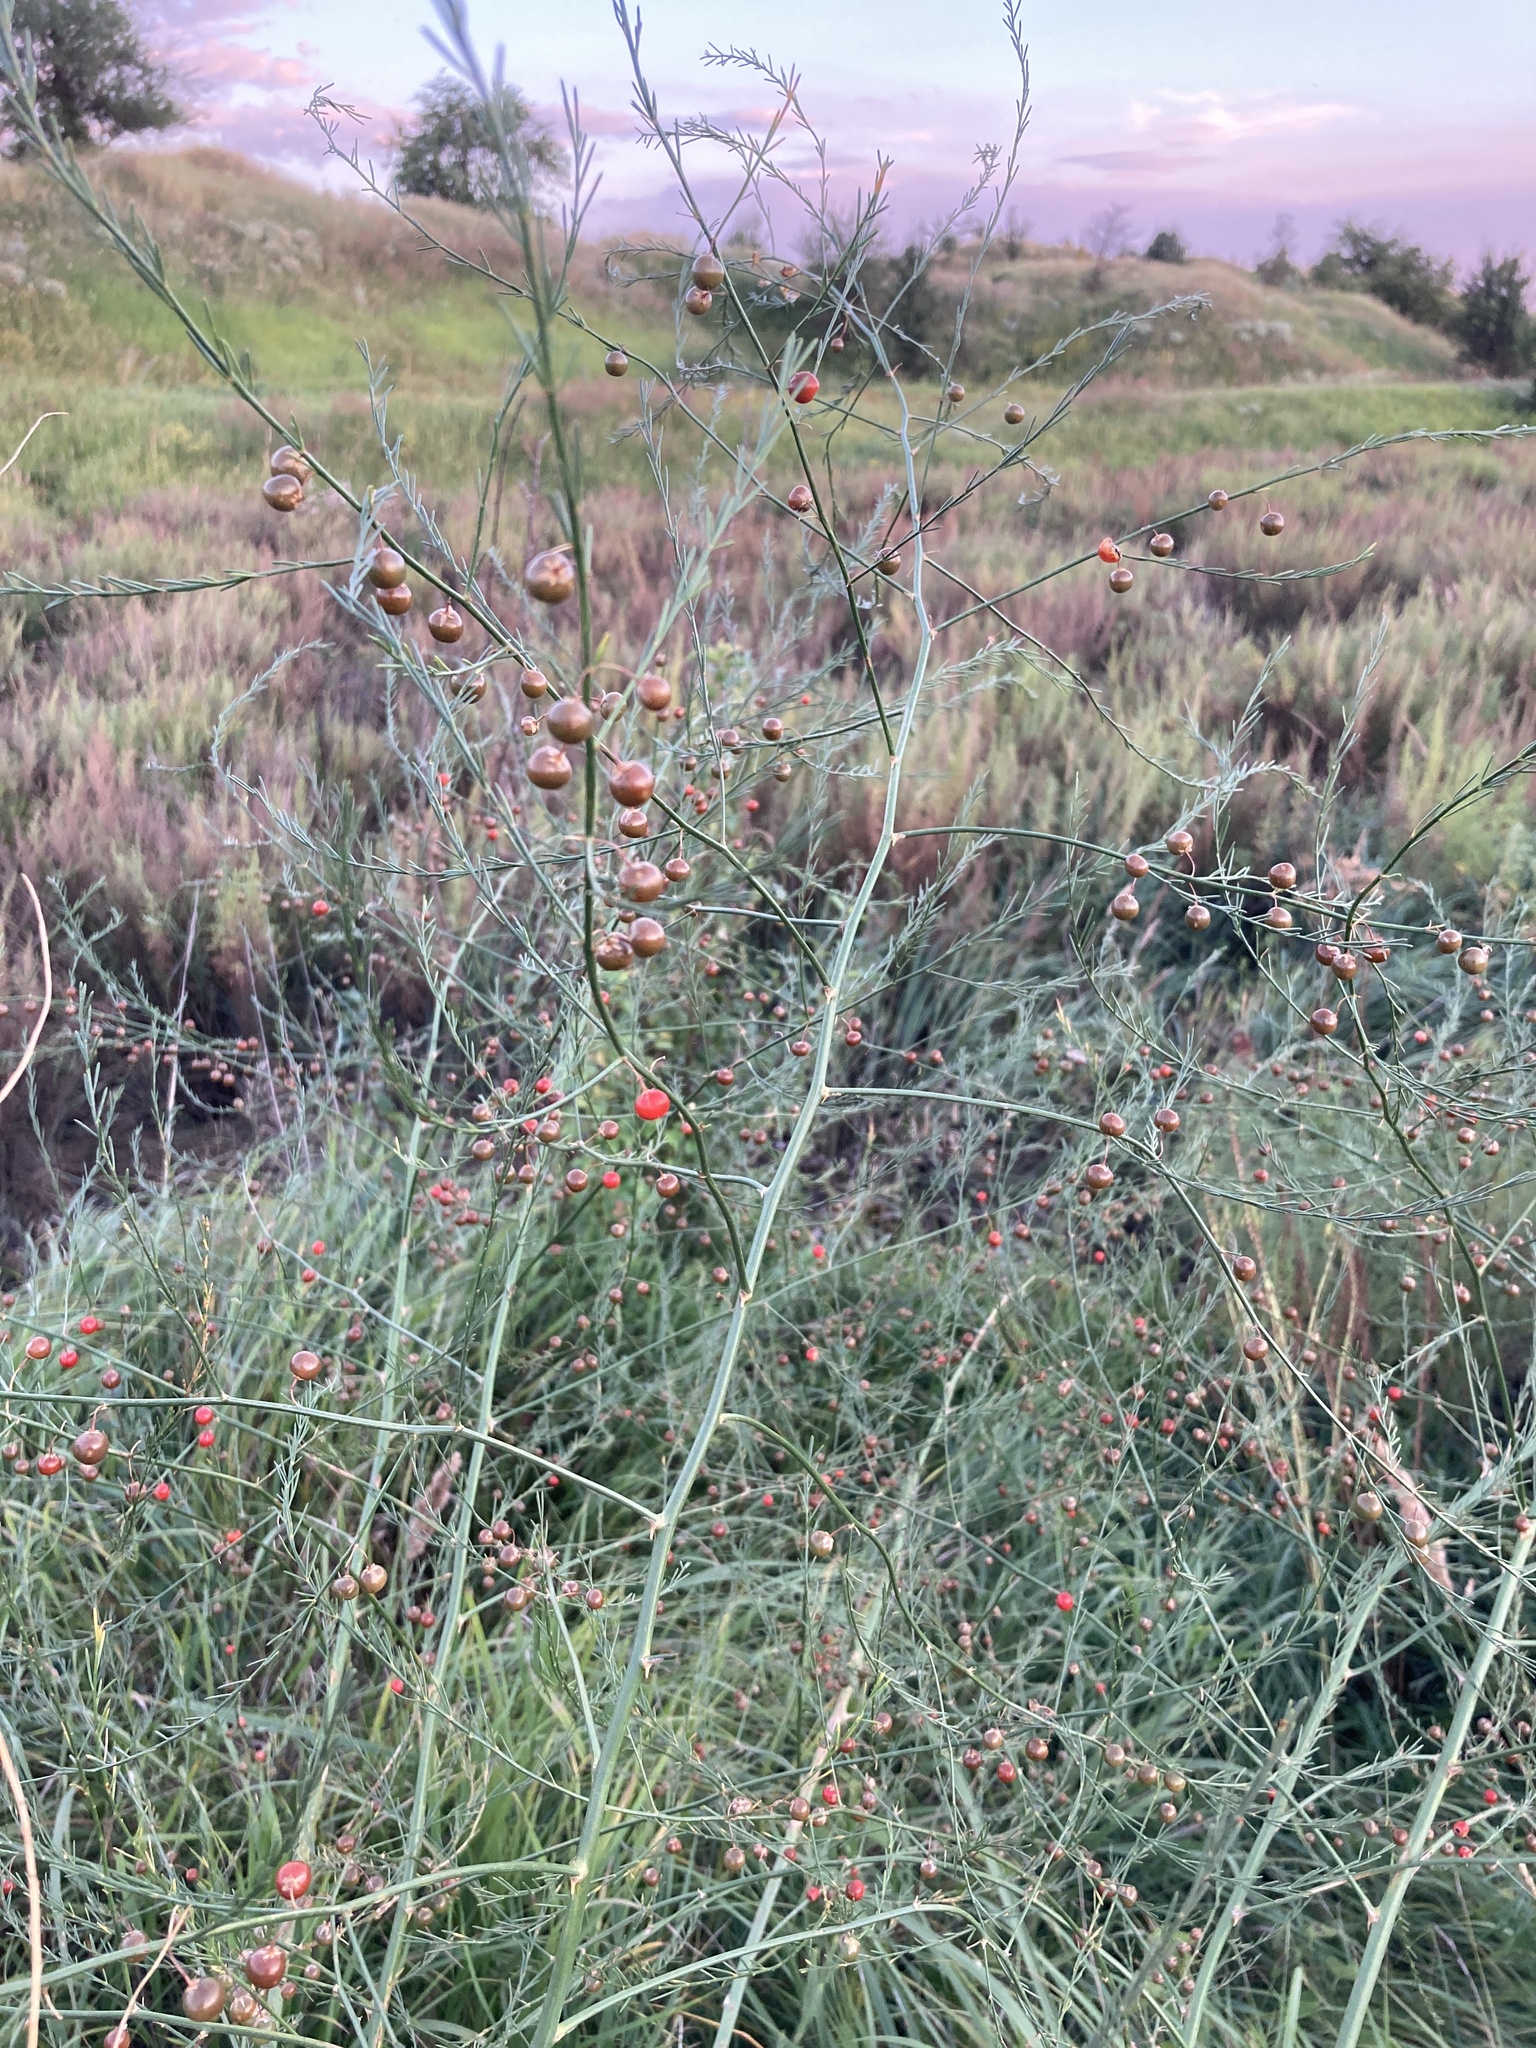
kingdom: Plantae
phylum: Tracheophyta
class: Liliopsida
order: Asparagales
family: Asparagaceae
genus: Asparagus
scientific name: Asparagus officinalis
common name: Garden asparagus
